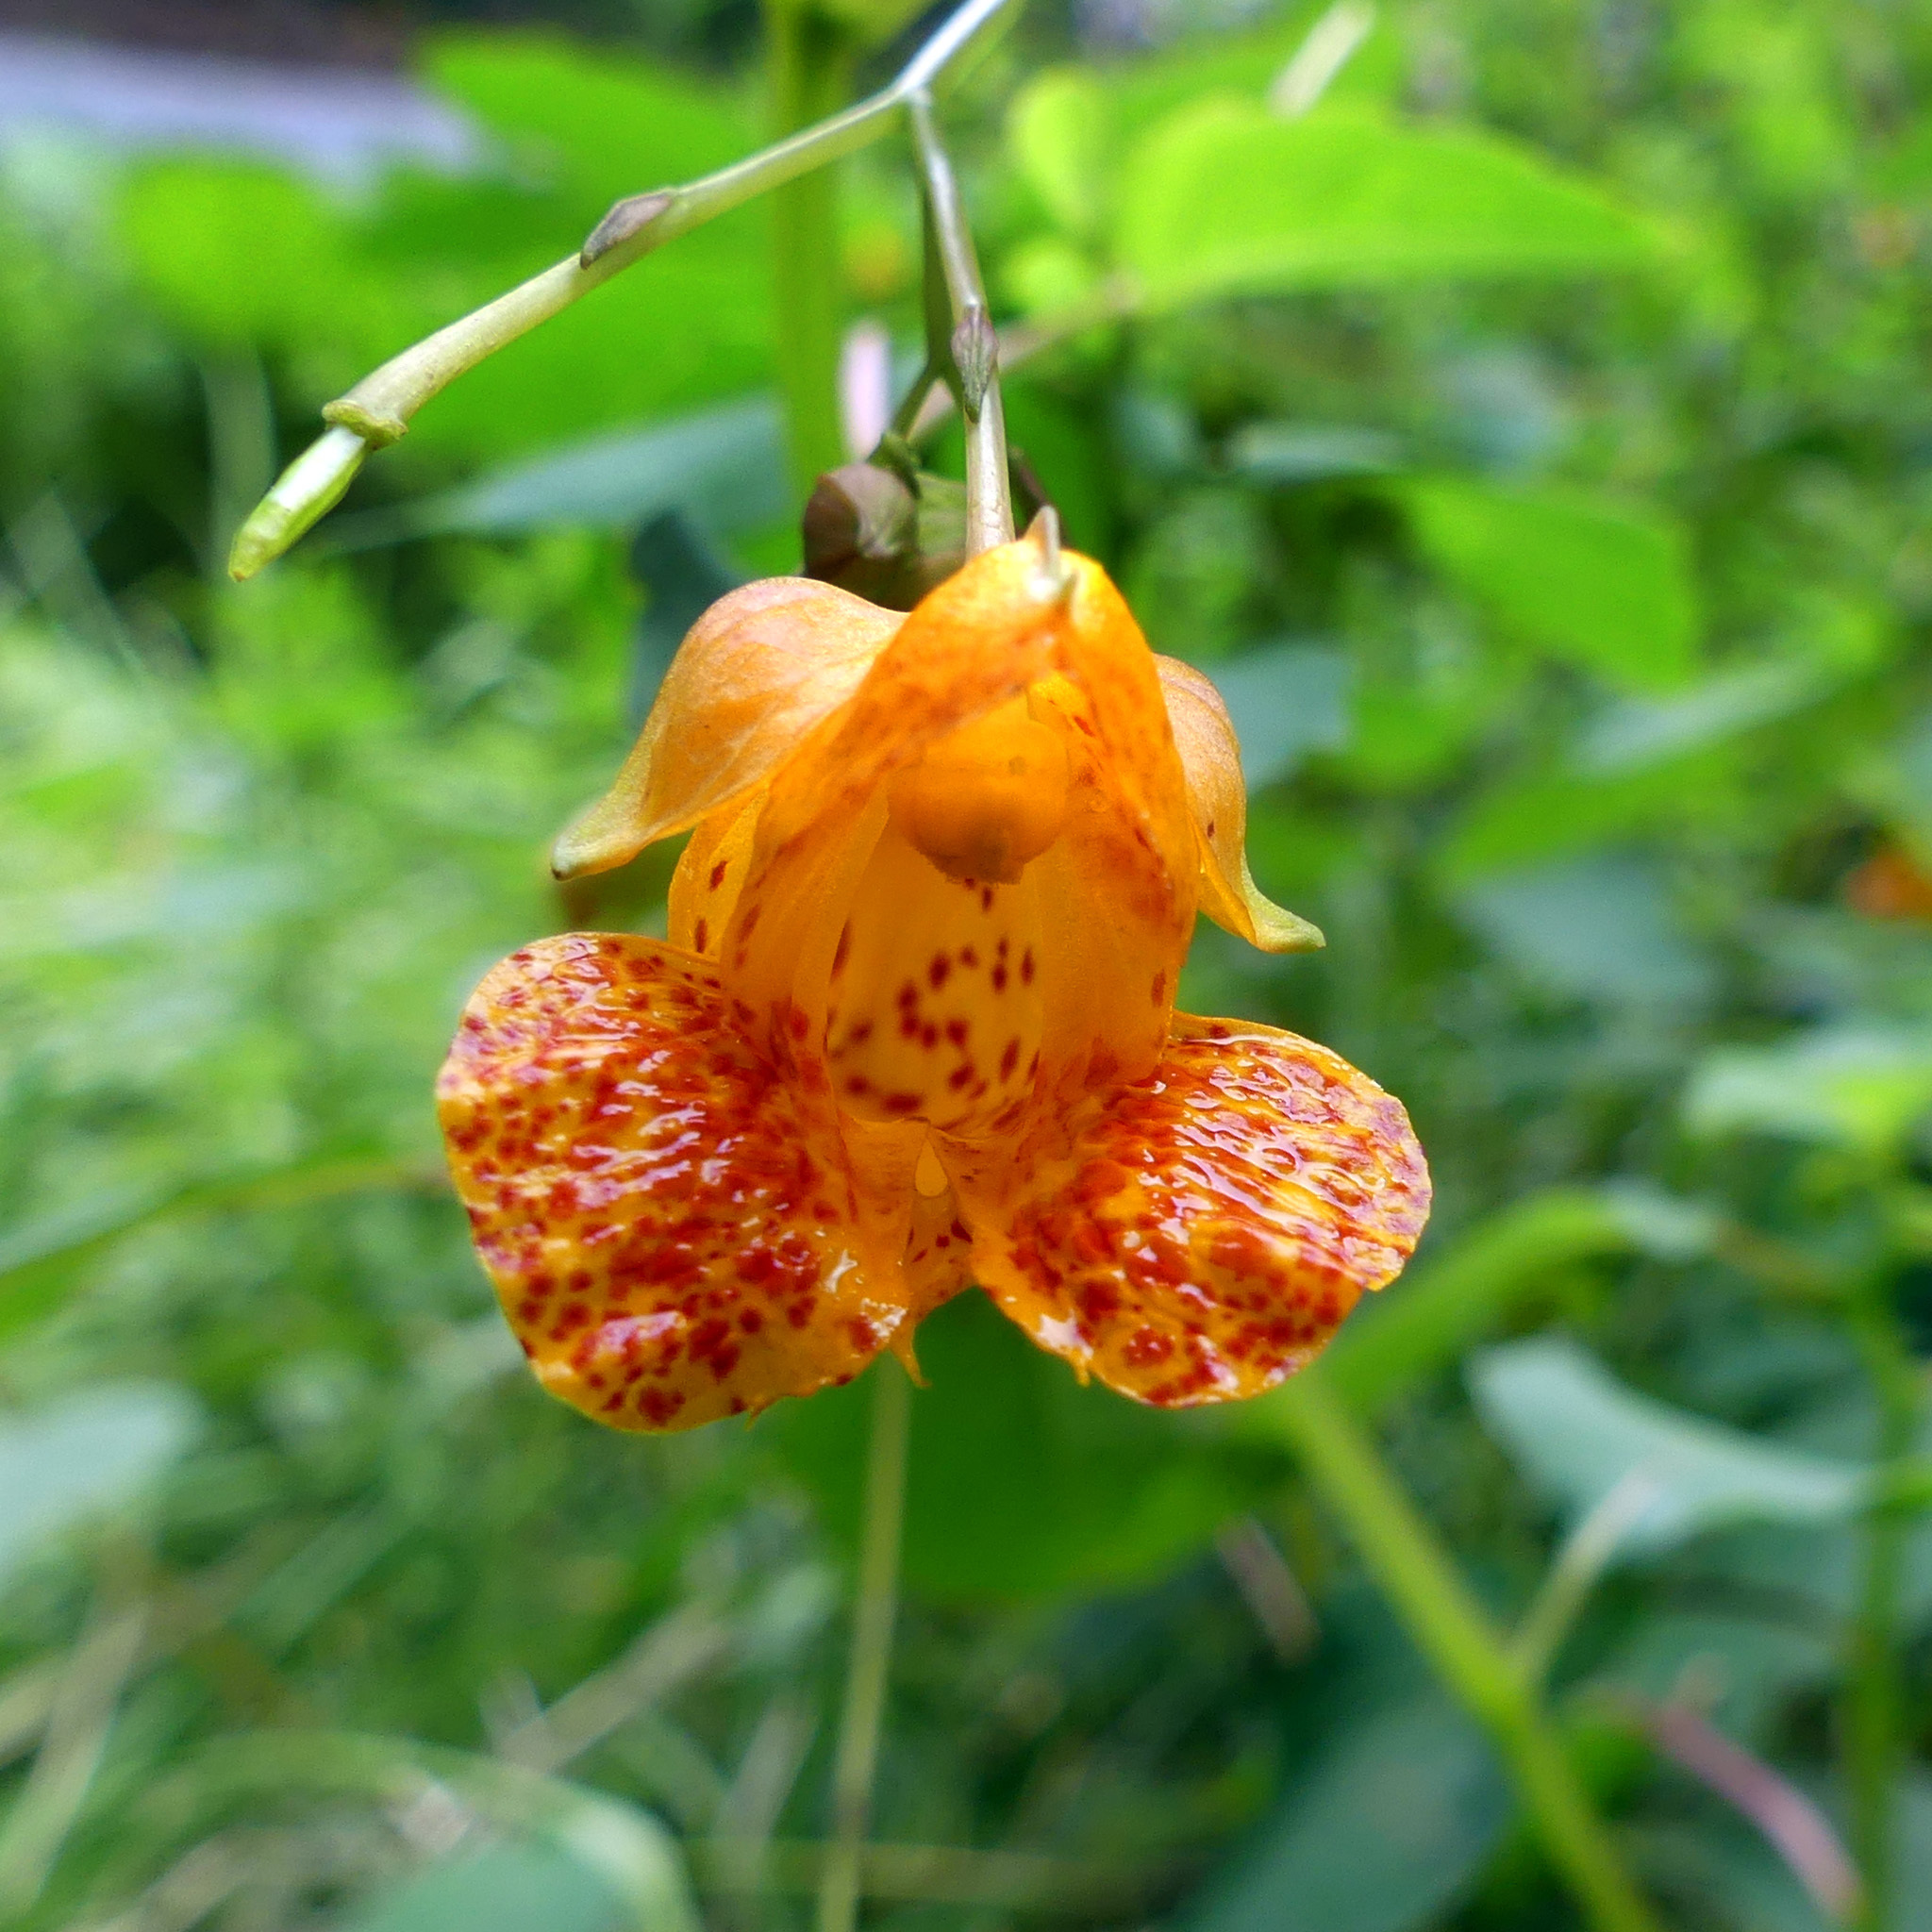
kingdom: Plantae
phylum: Tracheophyta
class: Magnoliopsida
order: Ericales
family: Balsaminaceae
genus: Impatiens
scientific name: Impatiens capensis
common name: Orange balsam
